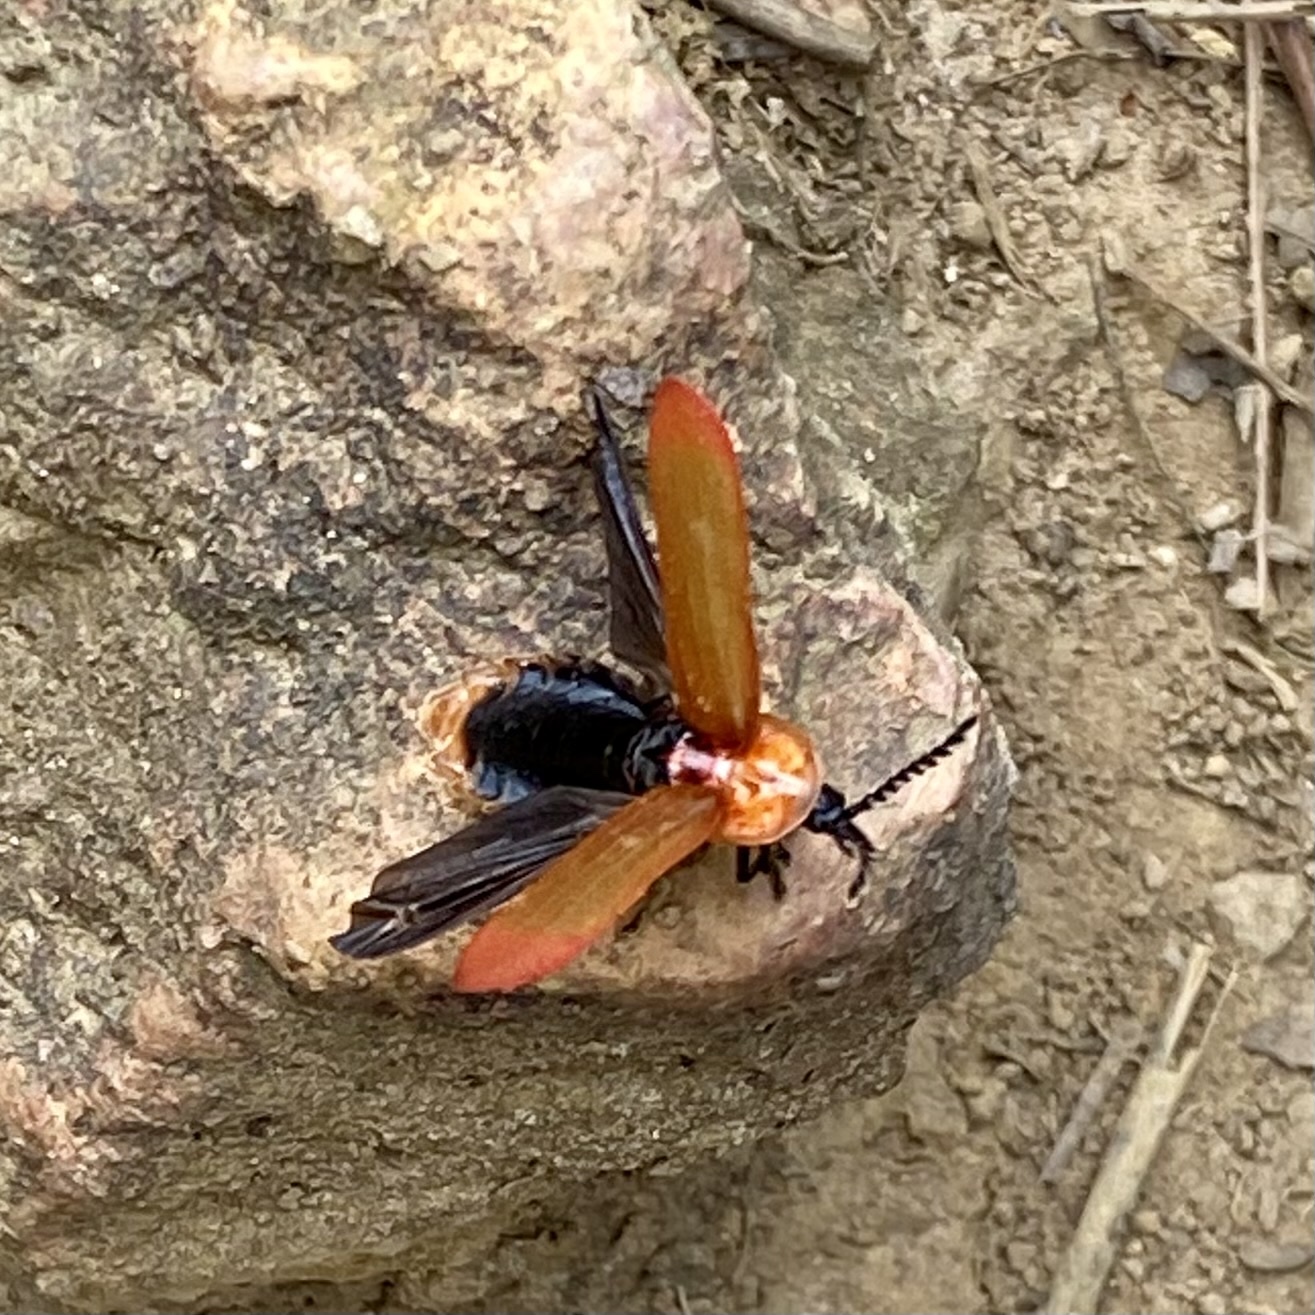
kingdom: Animalia
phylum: Arthropoda
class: Insecta
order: Coleoptera
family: Lampyridae
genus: Vesta
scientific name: Vesta sinuata
